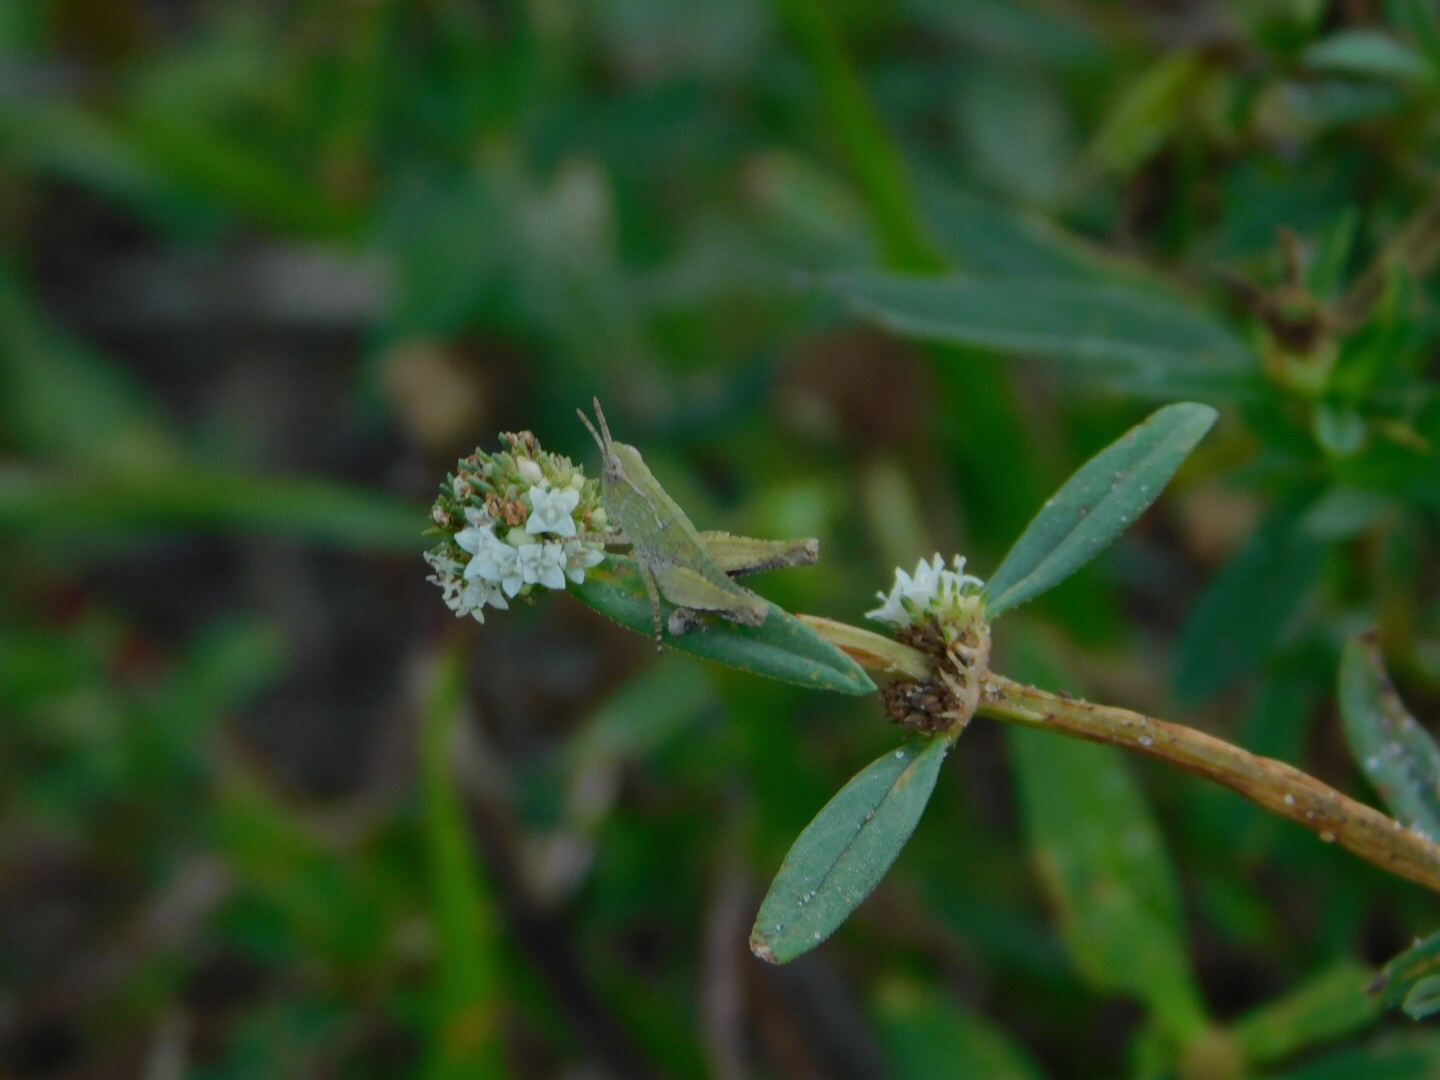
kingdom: Animalia
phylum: Arthropoda
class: Insecta
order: Orthoptera
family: Acrididae
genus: Orphulella
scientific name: Orphulella punctata
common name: Slant-faced grasshopper
